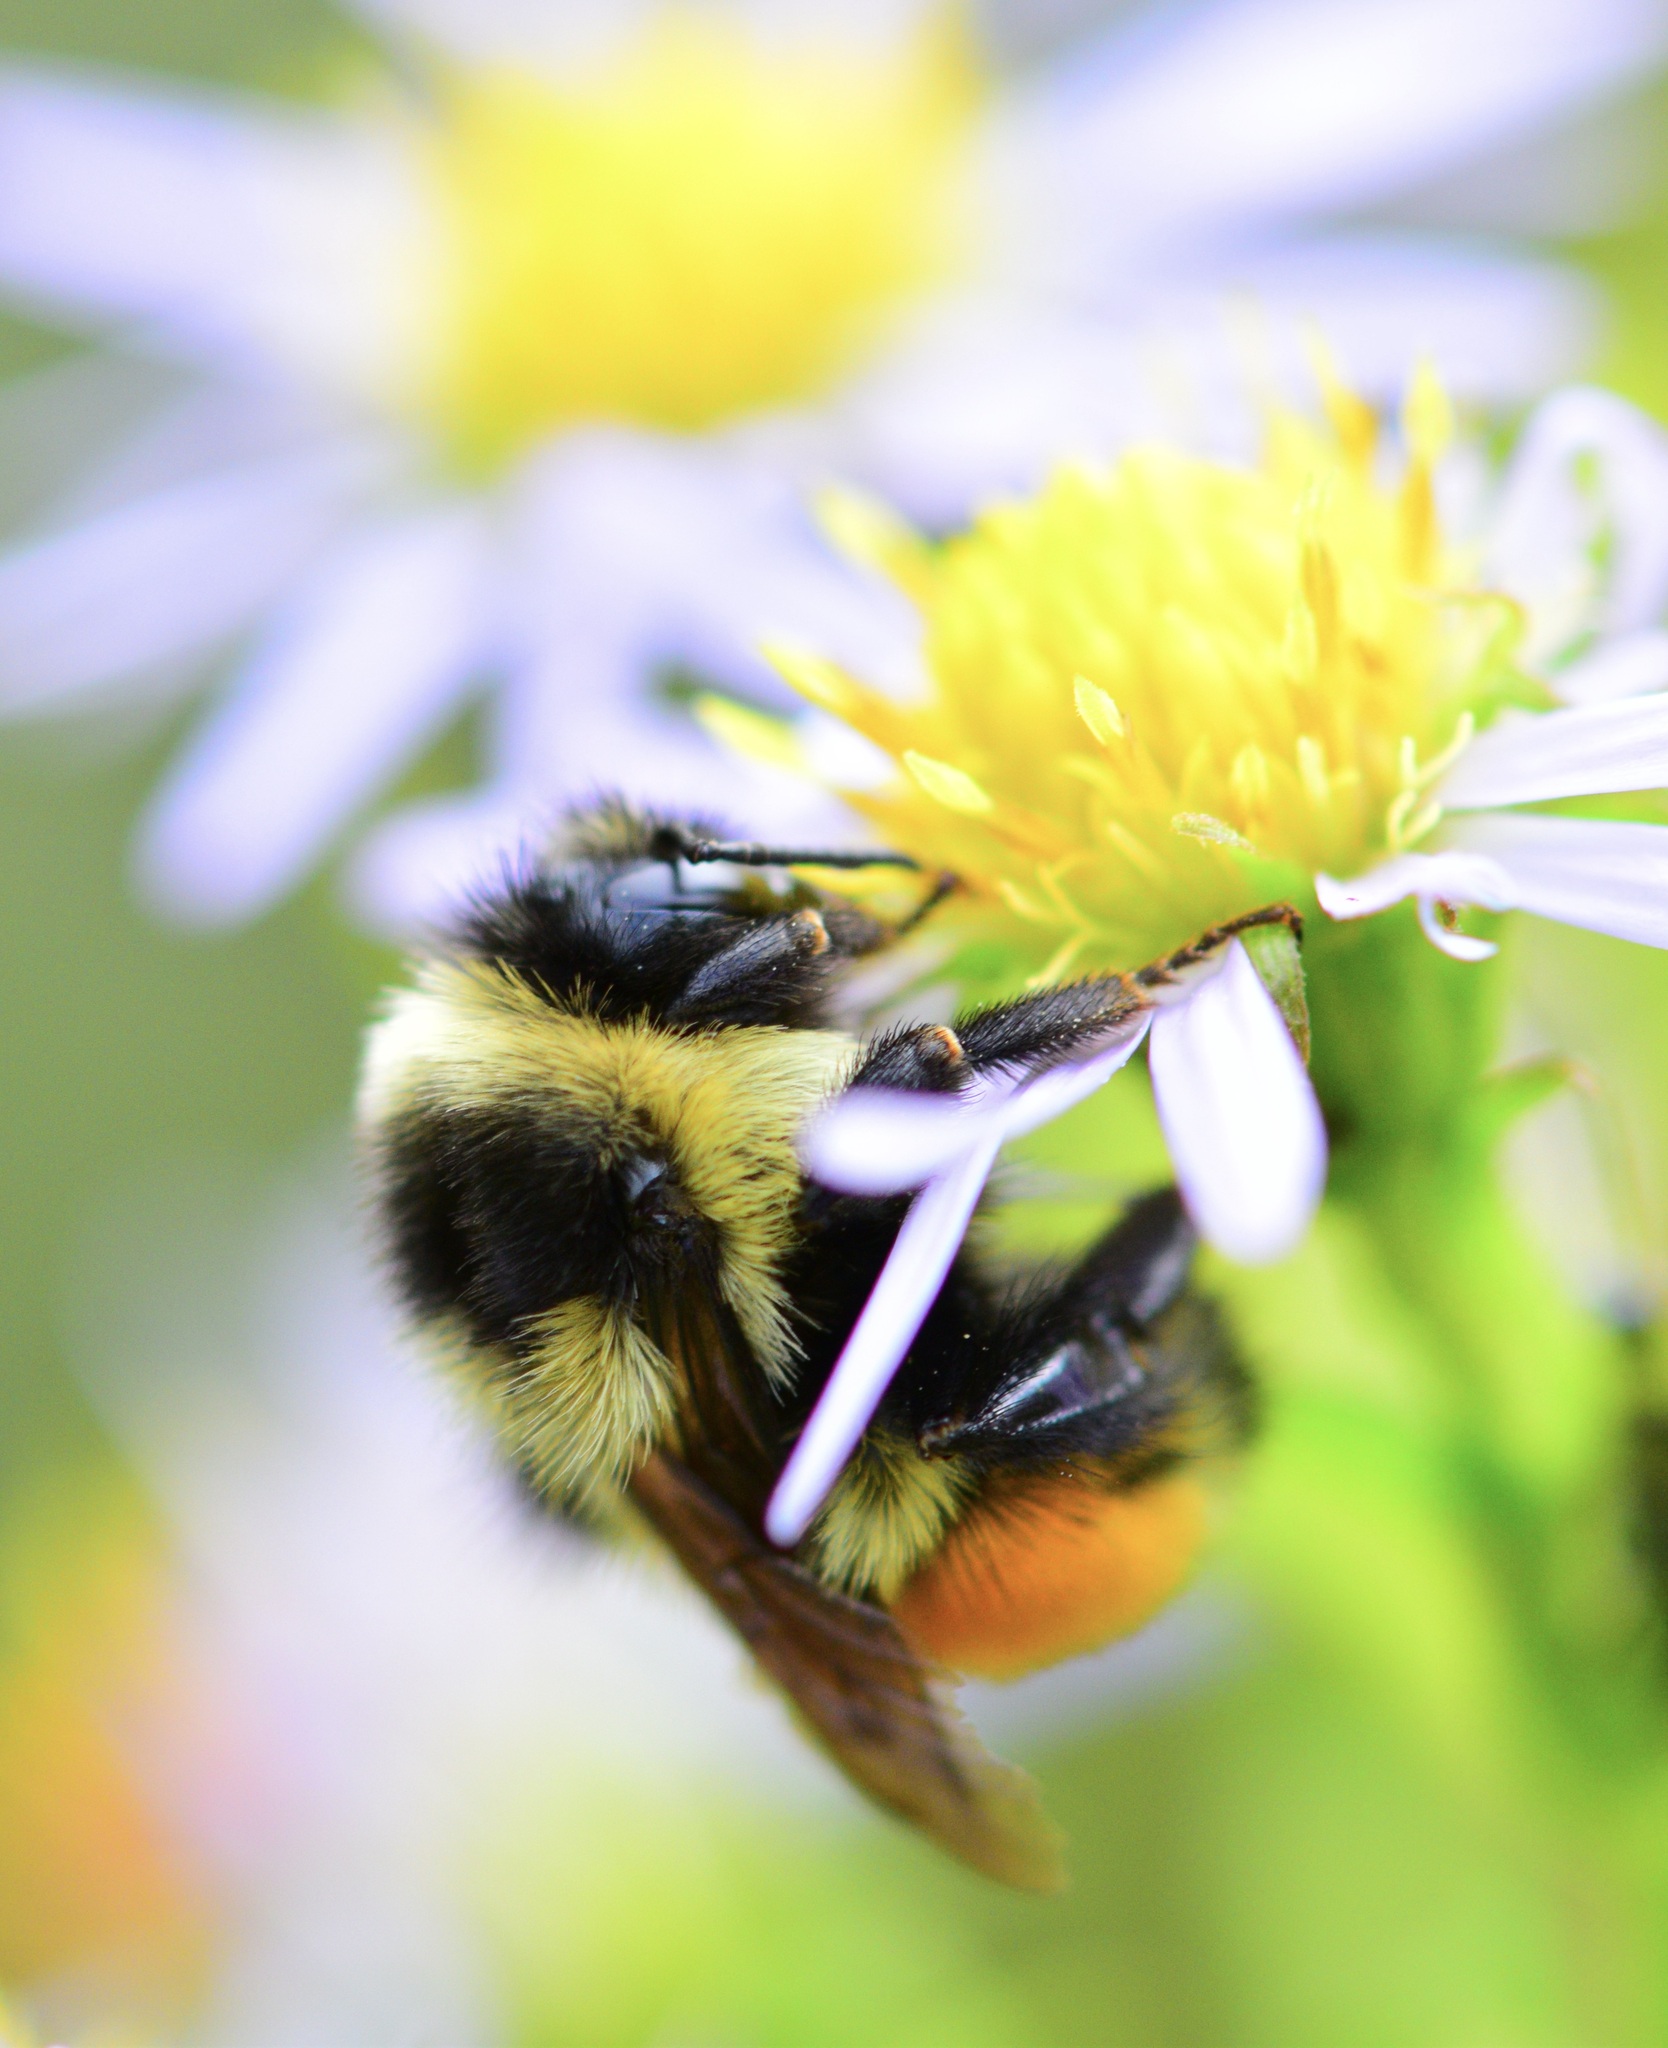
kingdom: Animalia
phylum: Arthropoda
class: Insecta
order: Hymenoptera
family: Apidae
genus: Bombus
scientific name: Bombus ternarius
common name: Tri-colored bumble bee
